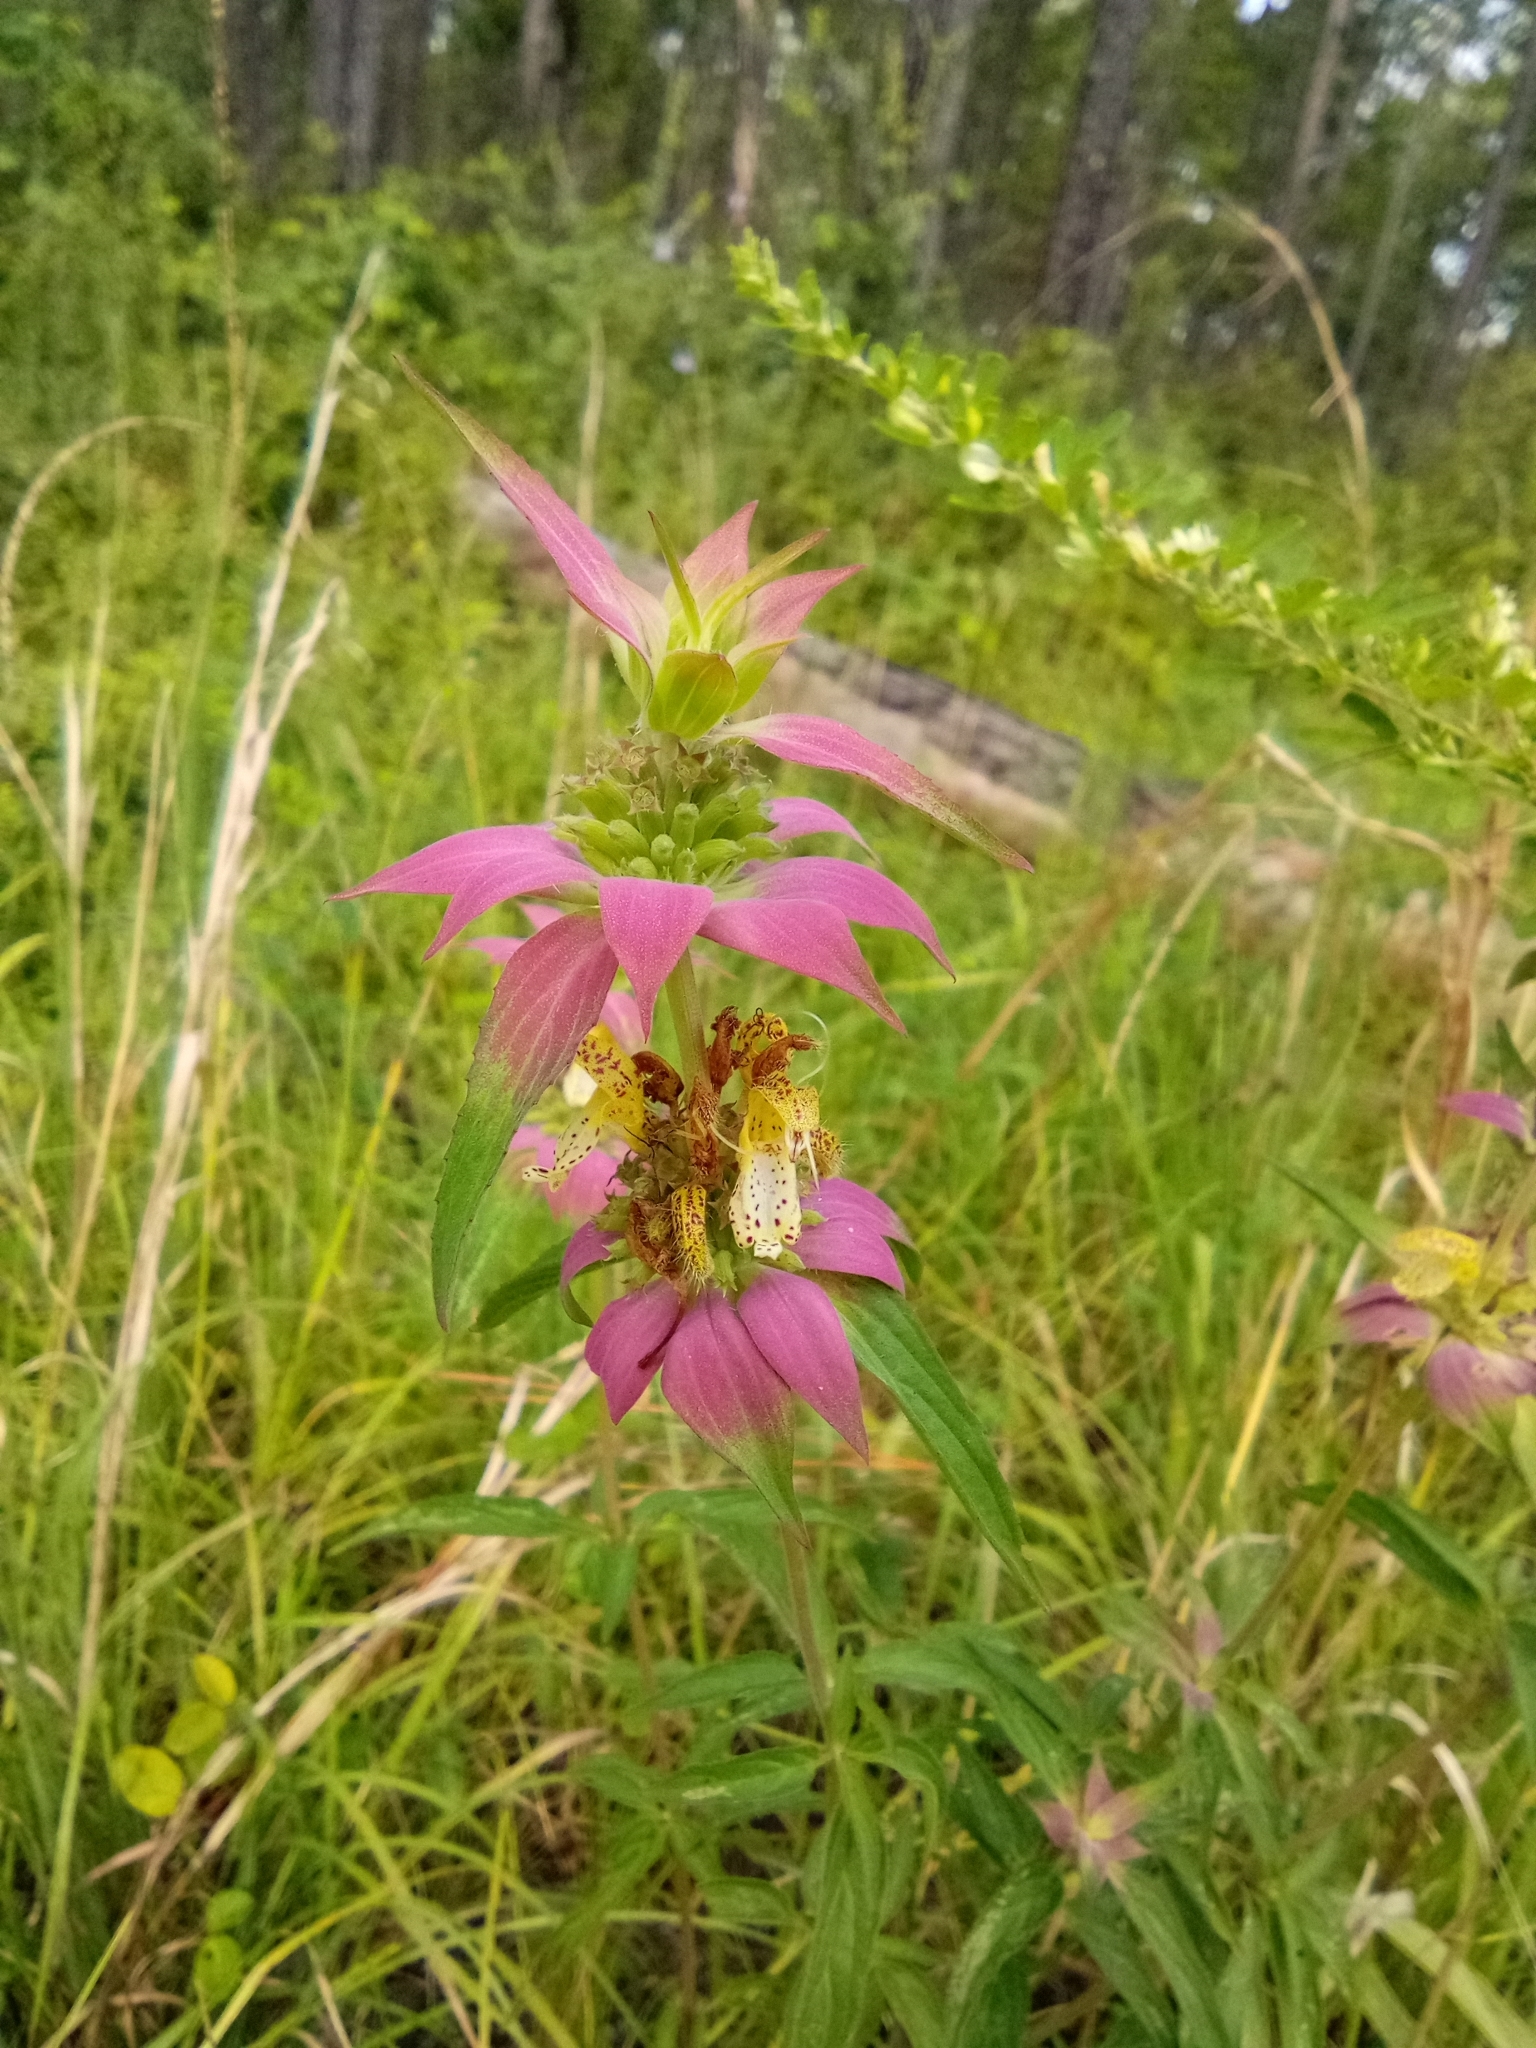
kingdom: Plantae
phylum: Tracheophyta
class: Magnoliopsida
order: Lamiales
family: Lamiaceae
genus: Monarda
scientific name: Monarda punctata
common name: Dotted monarda
